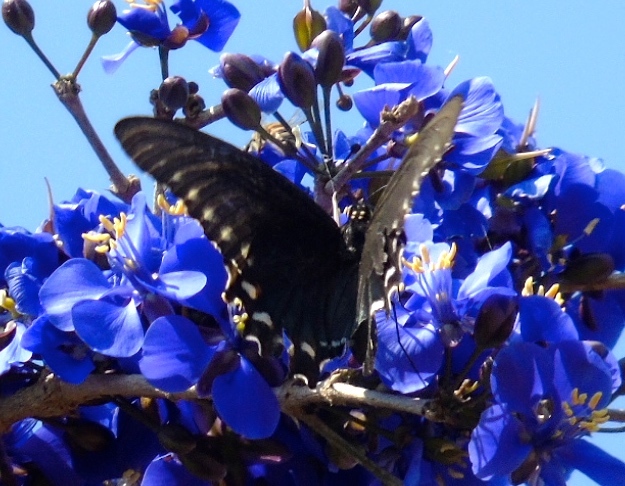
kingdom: Animalia
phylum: Arthropoda
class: Insecta
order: Lepidoptera
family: Papilionidae
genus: Battus
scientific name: Battus philenor
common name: Pipevine swallowtail
